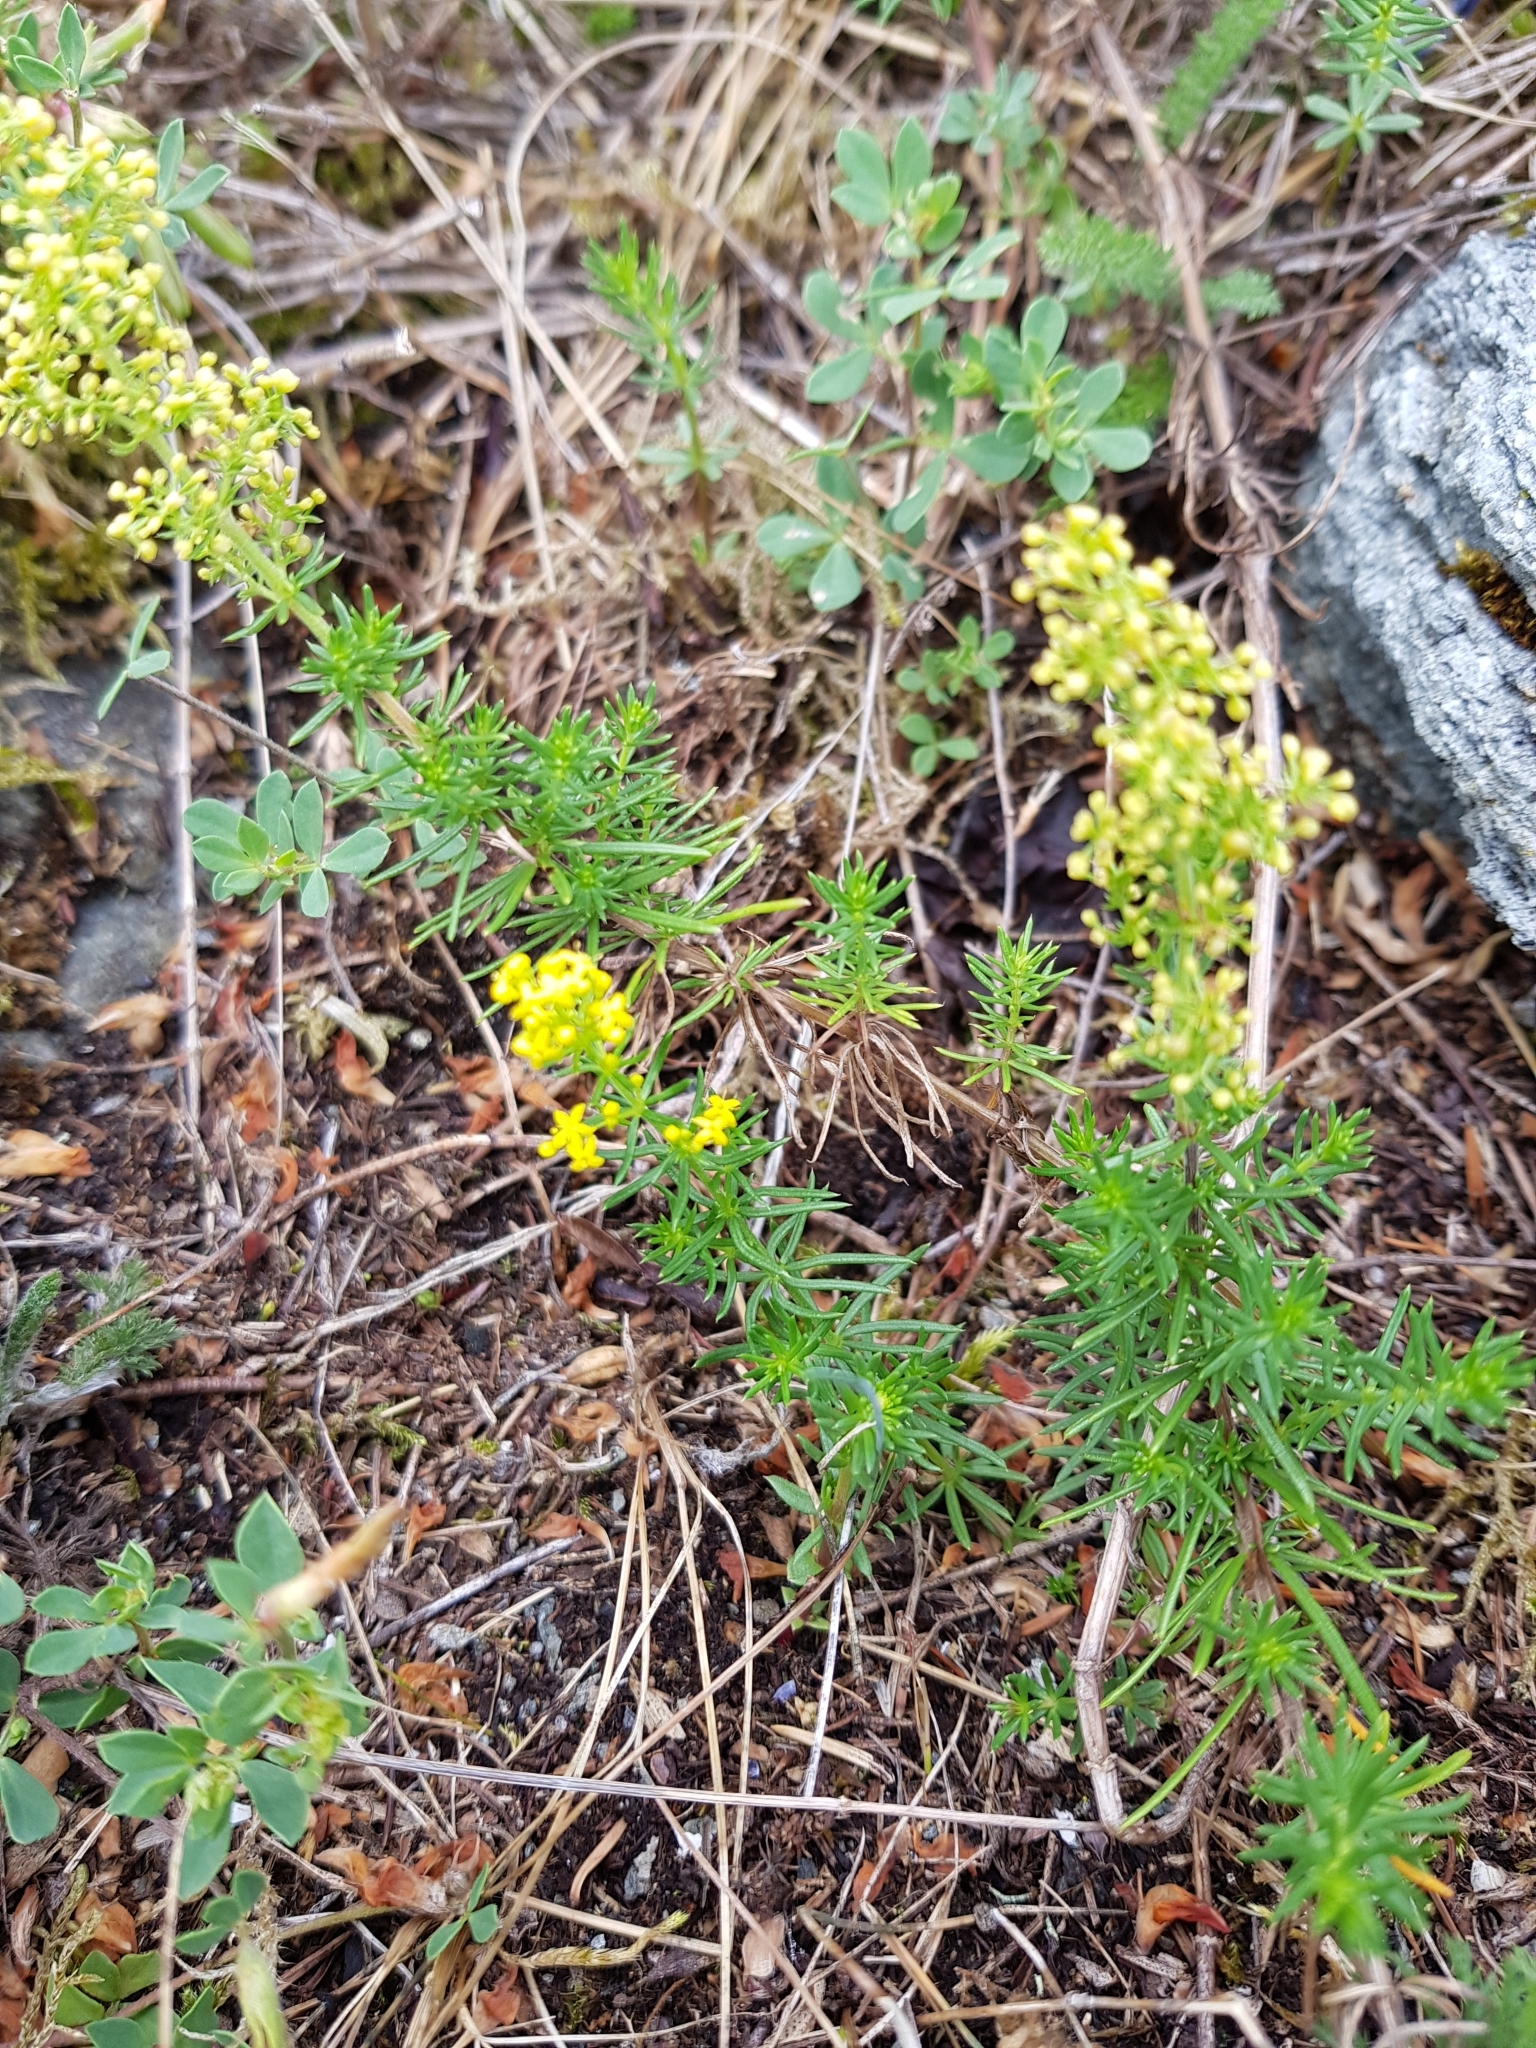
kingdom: Plantae
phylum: Tracheophyta
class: Magnoliopsida
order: Gentianales
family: Rubiaceae
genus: Galium
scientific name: Galium verum
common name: Lady's bedstraw
